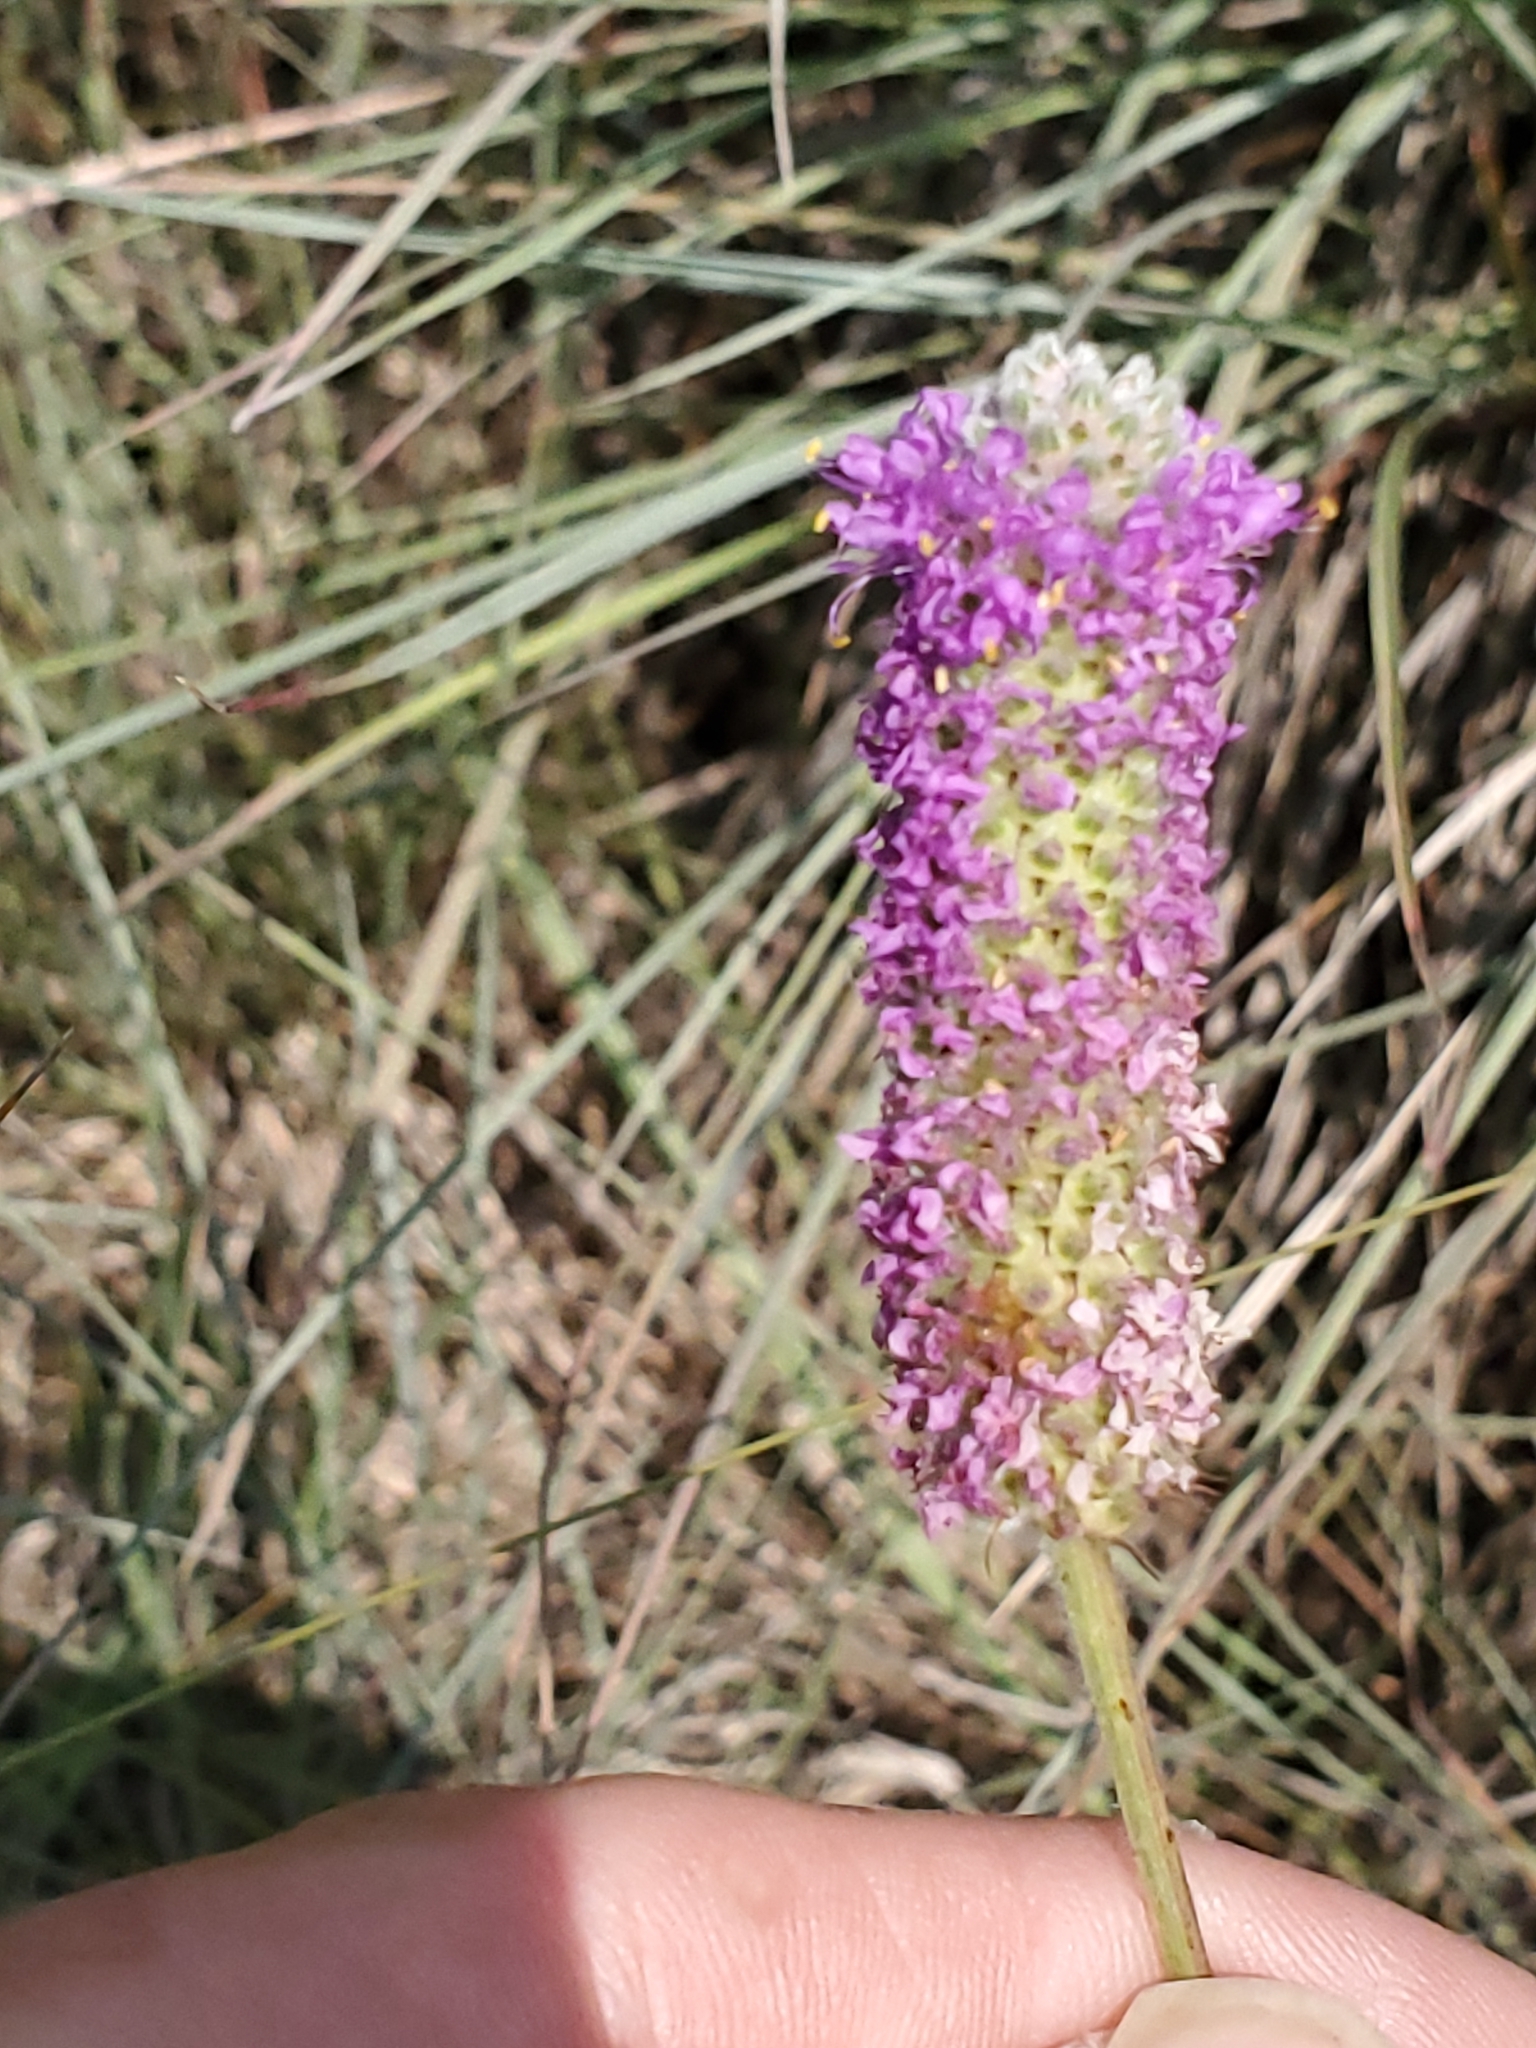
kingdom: Plantae
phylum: Tracheophyta
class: Magnoliopsida
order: Fabales
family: Fabaceae
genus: Dalea
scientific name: Dalea purpurea
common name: Purple prairie-clover
